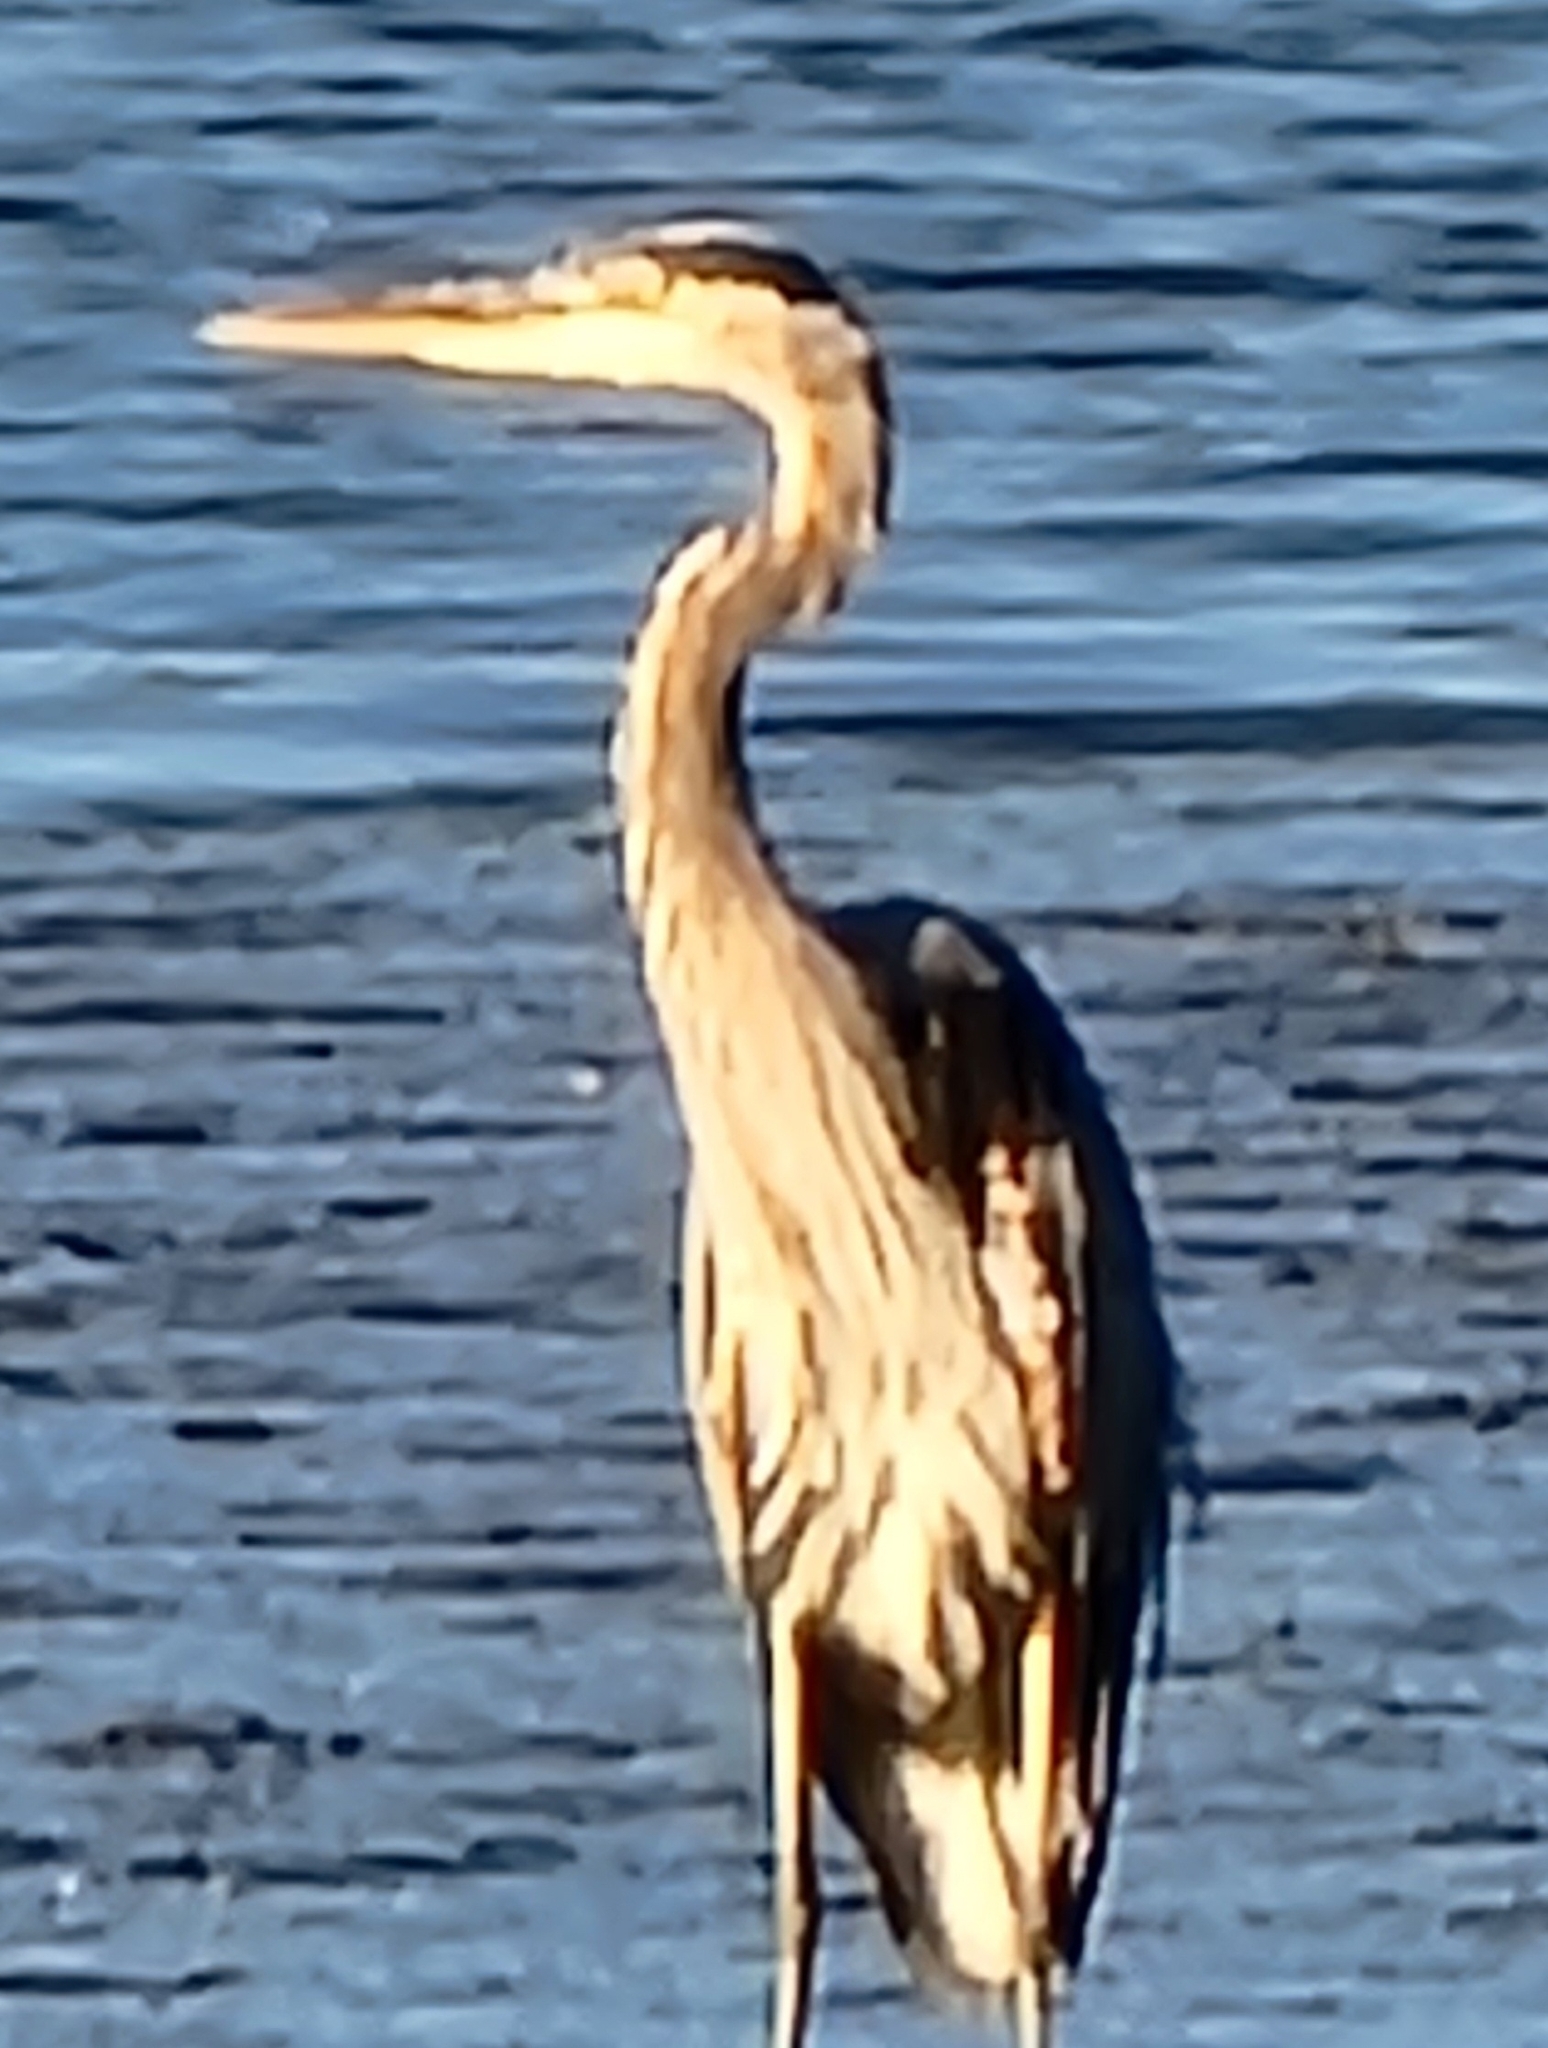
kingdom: Animalia
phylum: Chordata
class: Aves
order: Pelecaniformes
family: Ardeidae
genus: Ardea
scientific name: Ardea herodias
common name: Great blue heron
